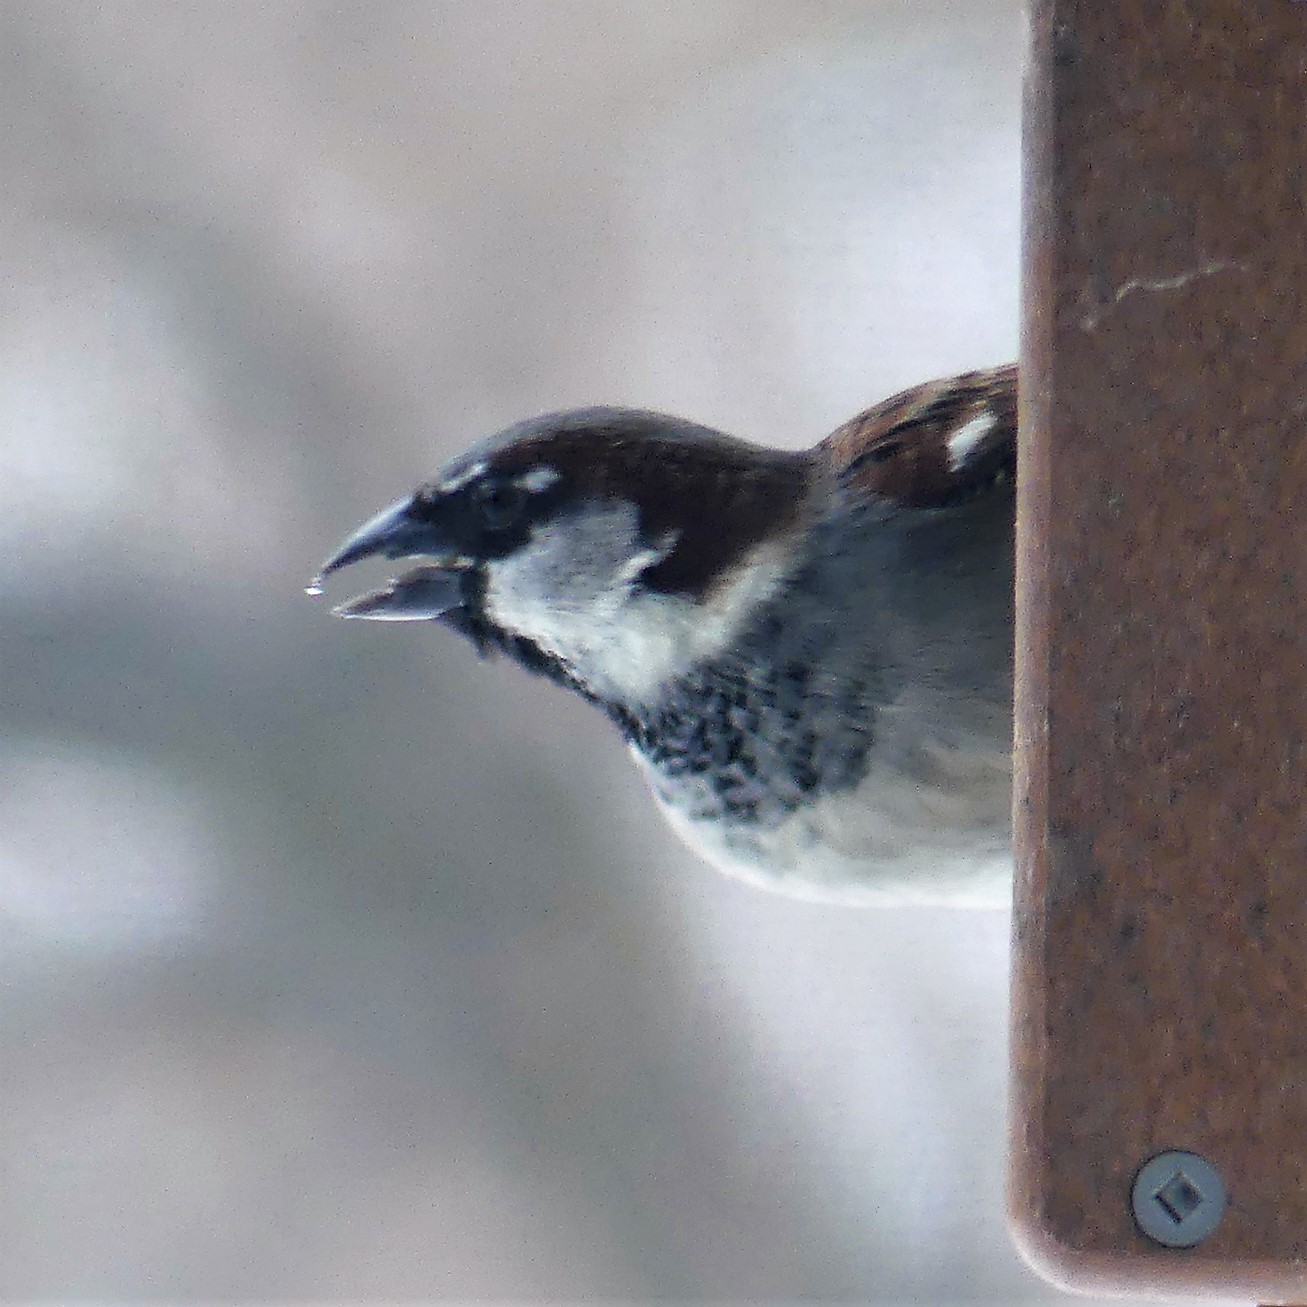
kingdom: Animalia
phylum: Chordata
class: Aves
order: Passeriformes
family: Passeridae
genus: Passer
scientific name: Passer domesticus
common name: House sparrow
